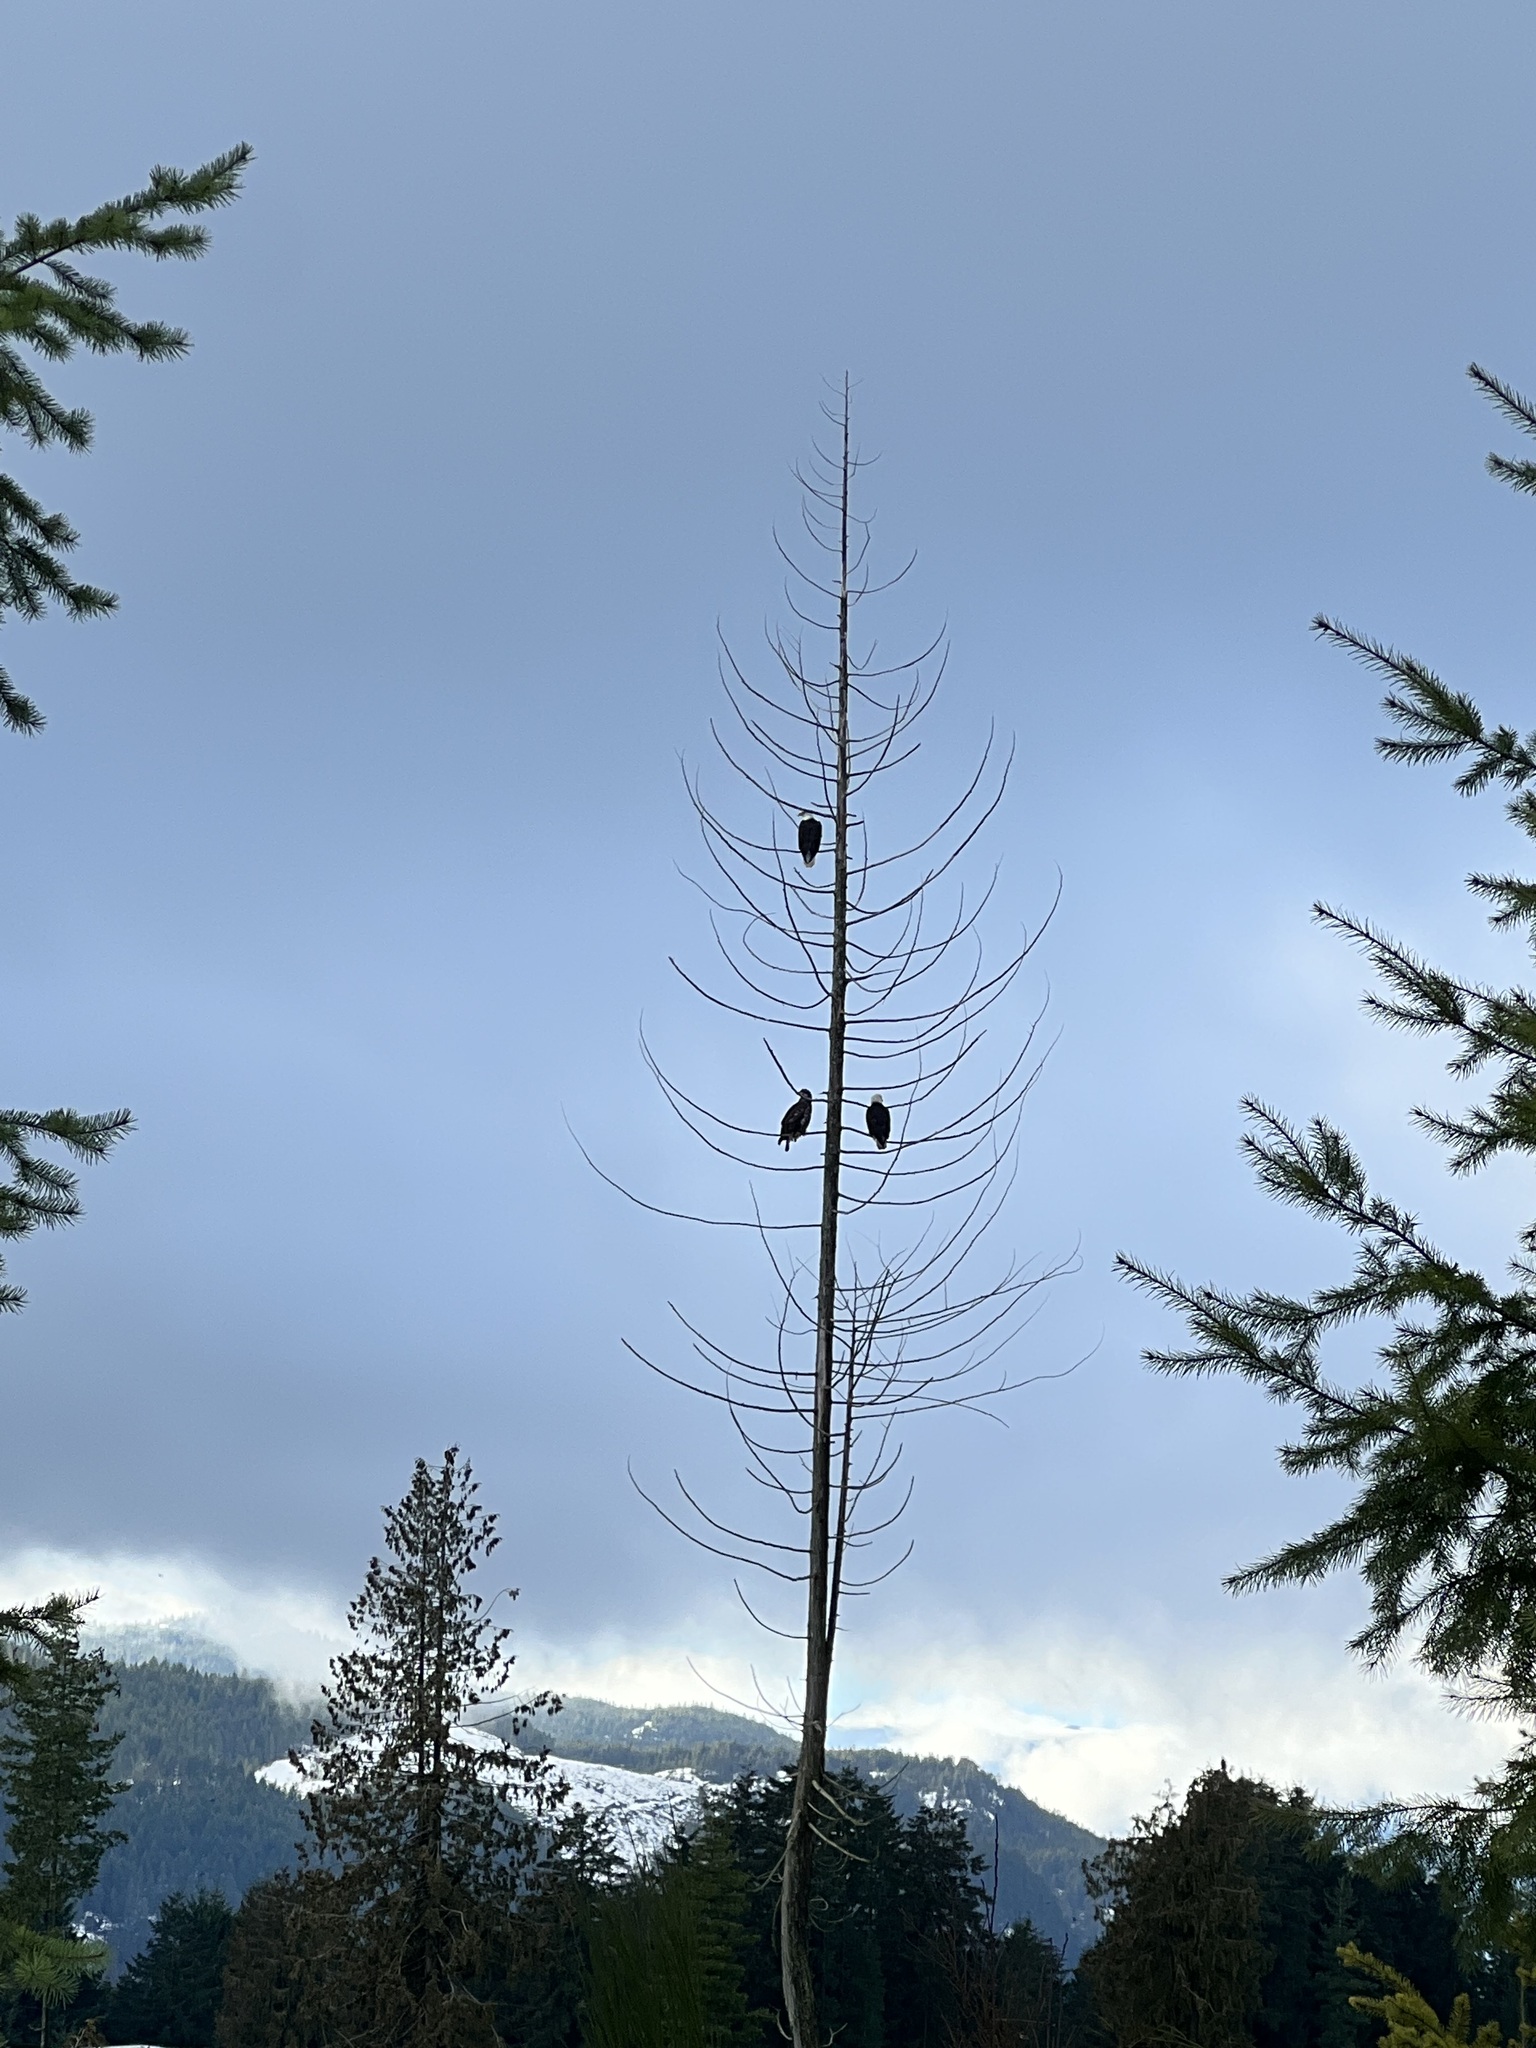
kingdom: Animalia
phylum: Chordata
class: Aves
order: Accipitriformes
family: Accipitridae
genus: Haliaeetus
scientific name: Haliaeetus leucocephalus
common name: Bald eagle
